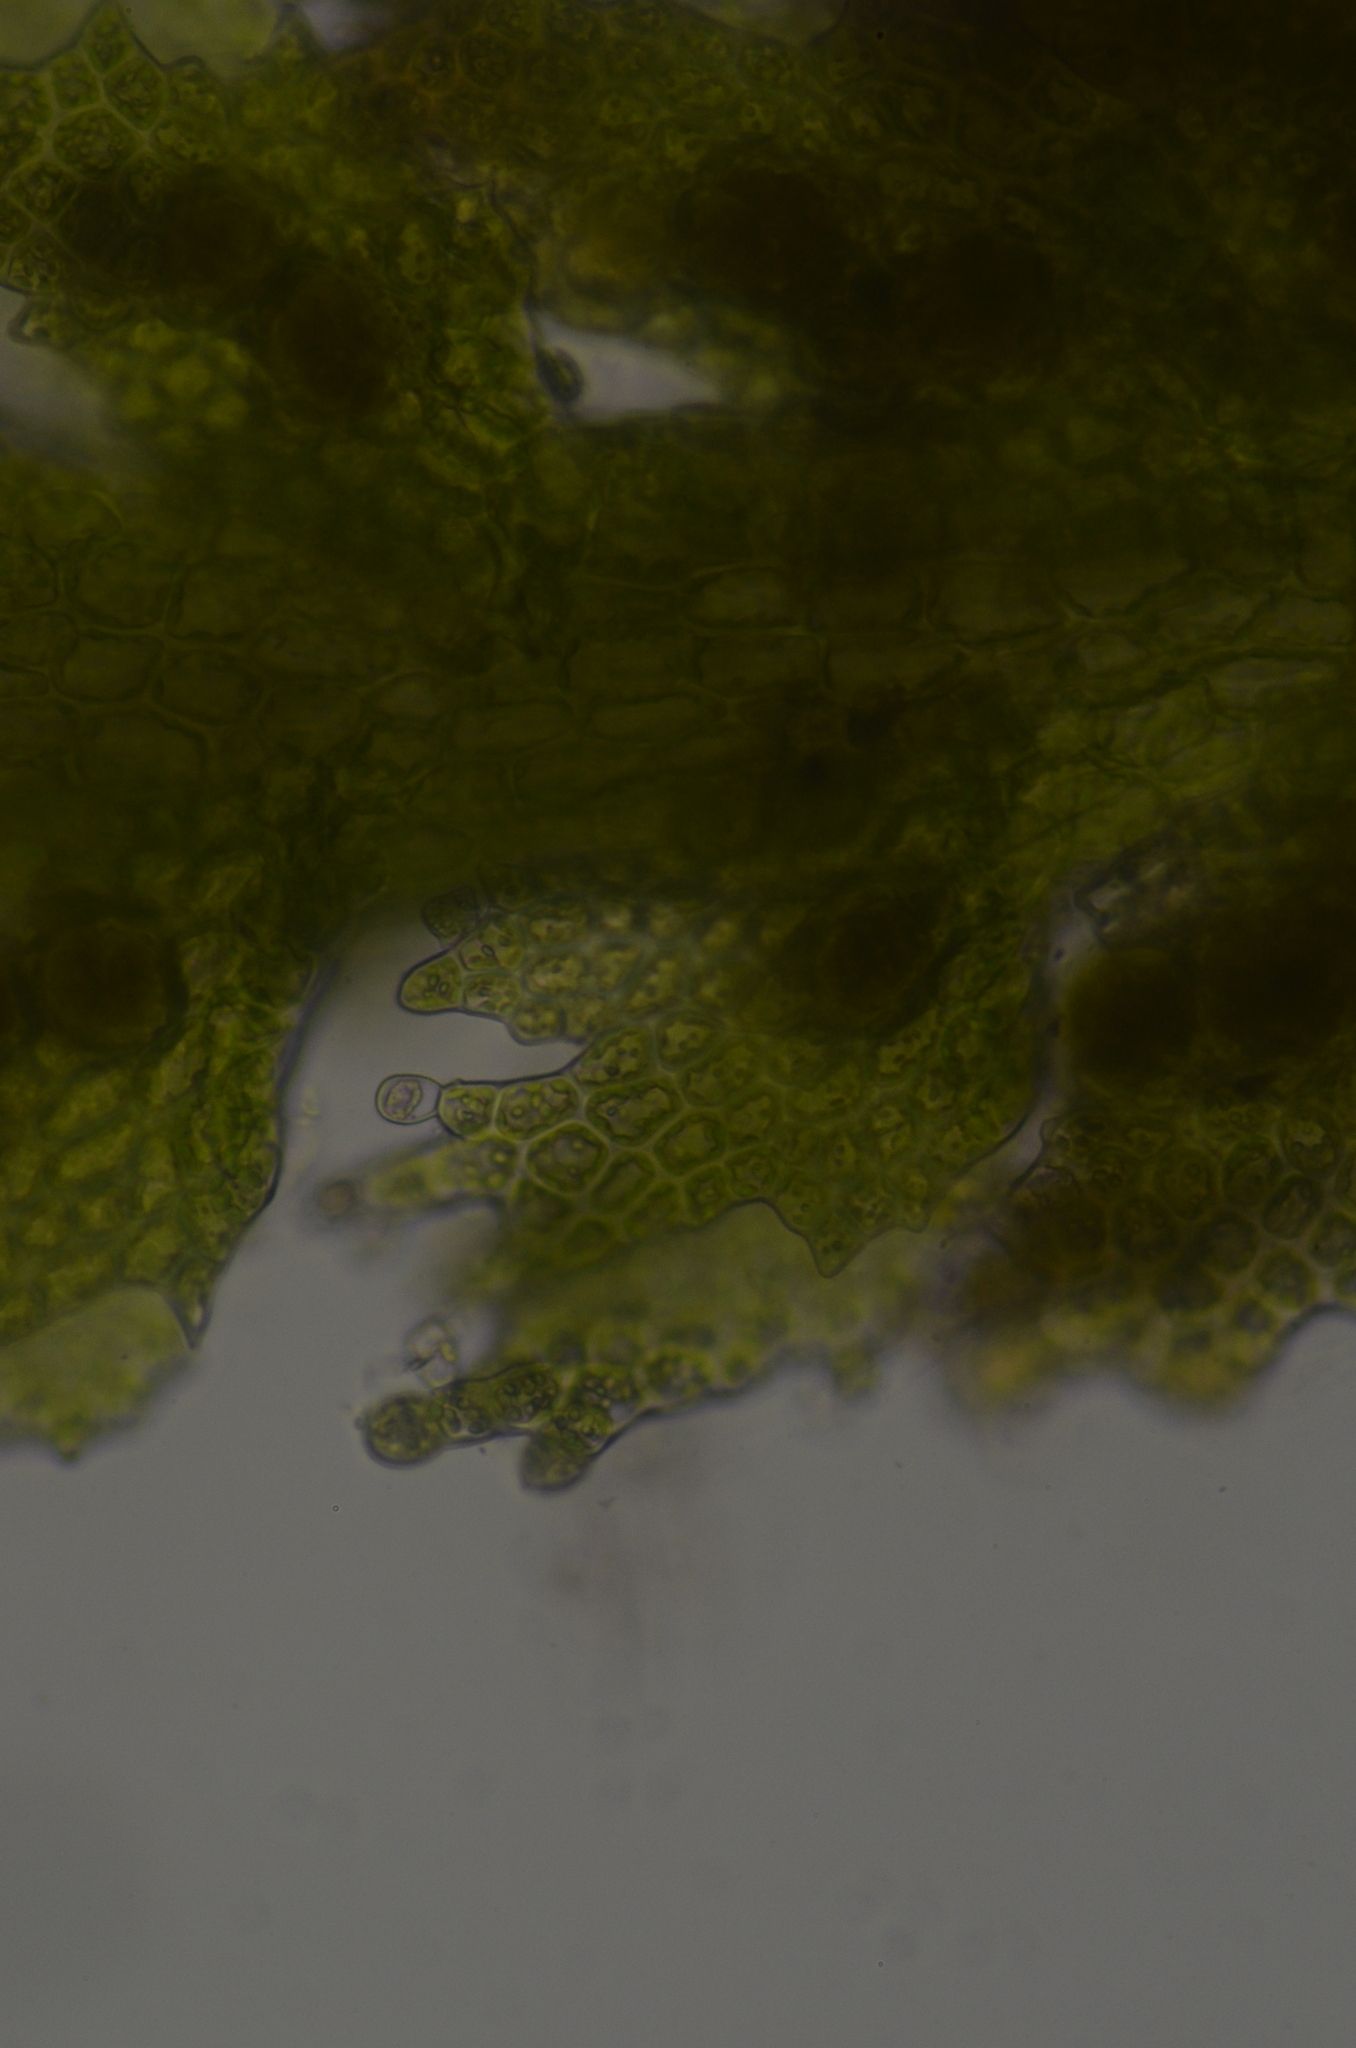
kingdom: Plantae
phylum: Marchantiophyta
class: Jungermanniopsida
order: Jungermanniales
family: Cephaloziellaceae
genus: Cephaloziella
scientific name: Cephaloziella turneri
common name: Turner's threadwort
